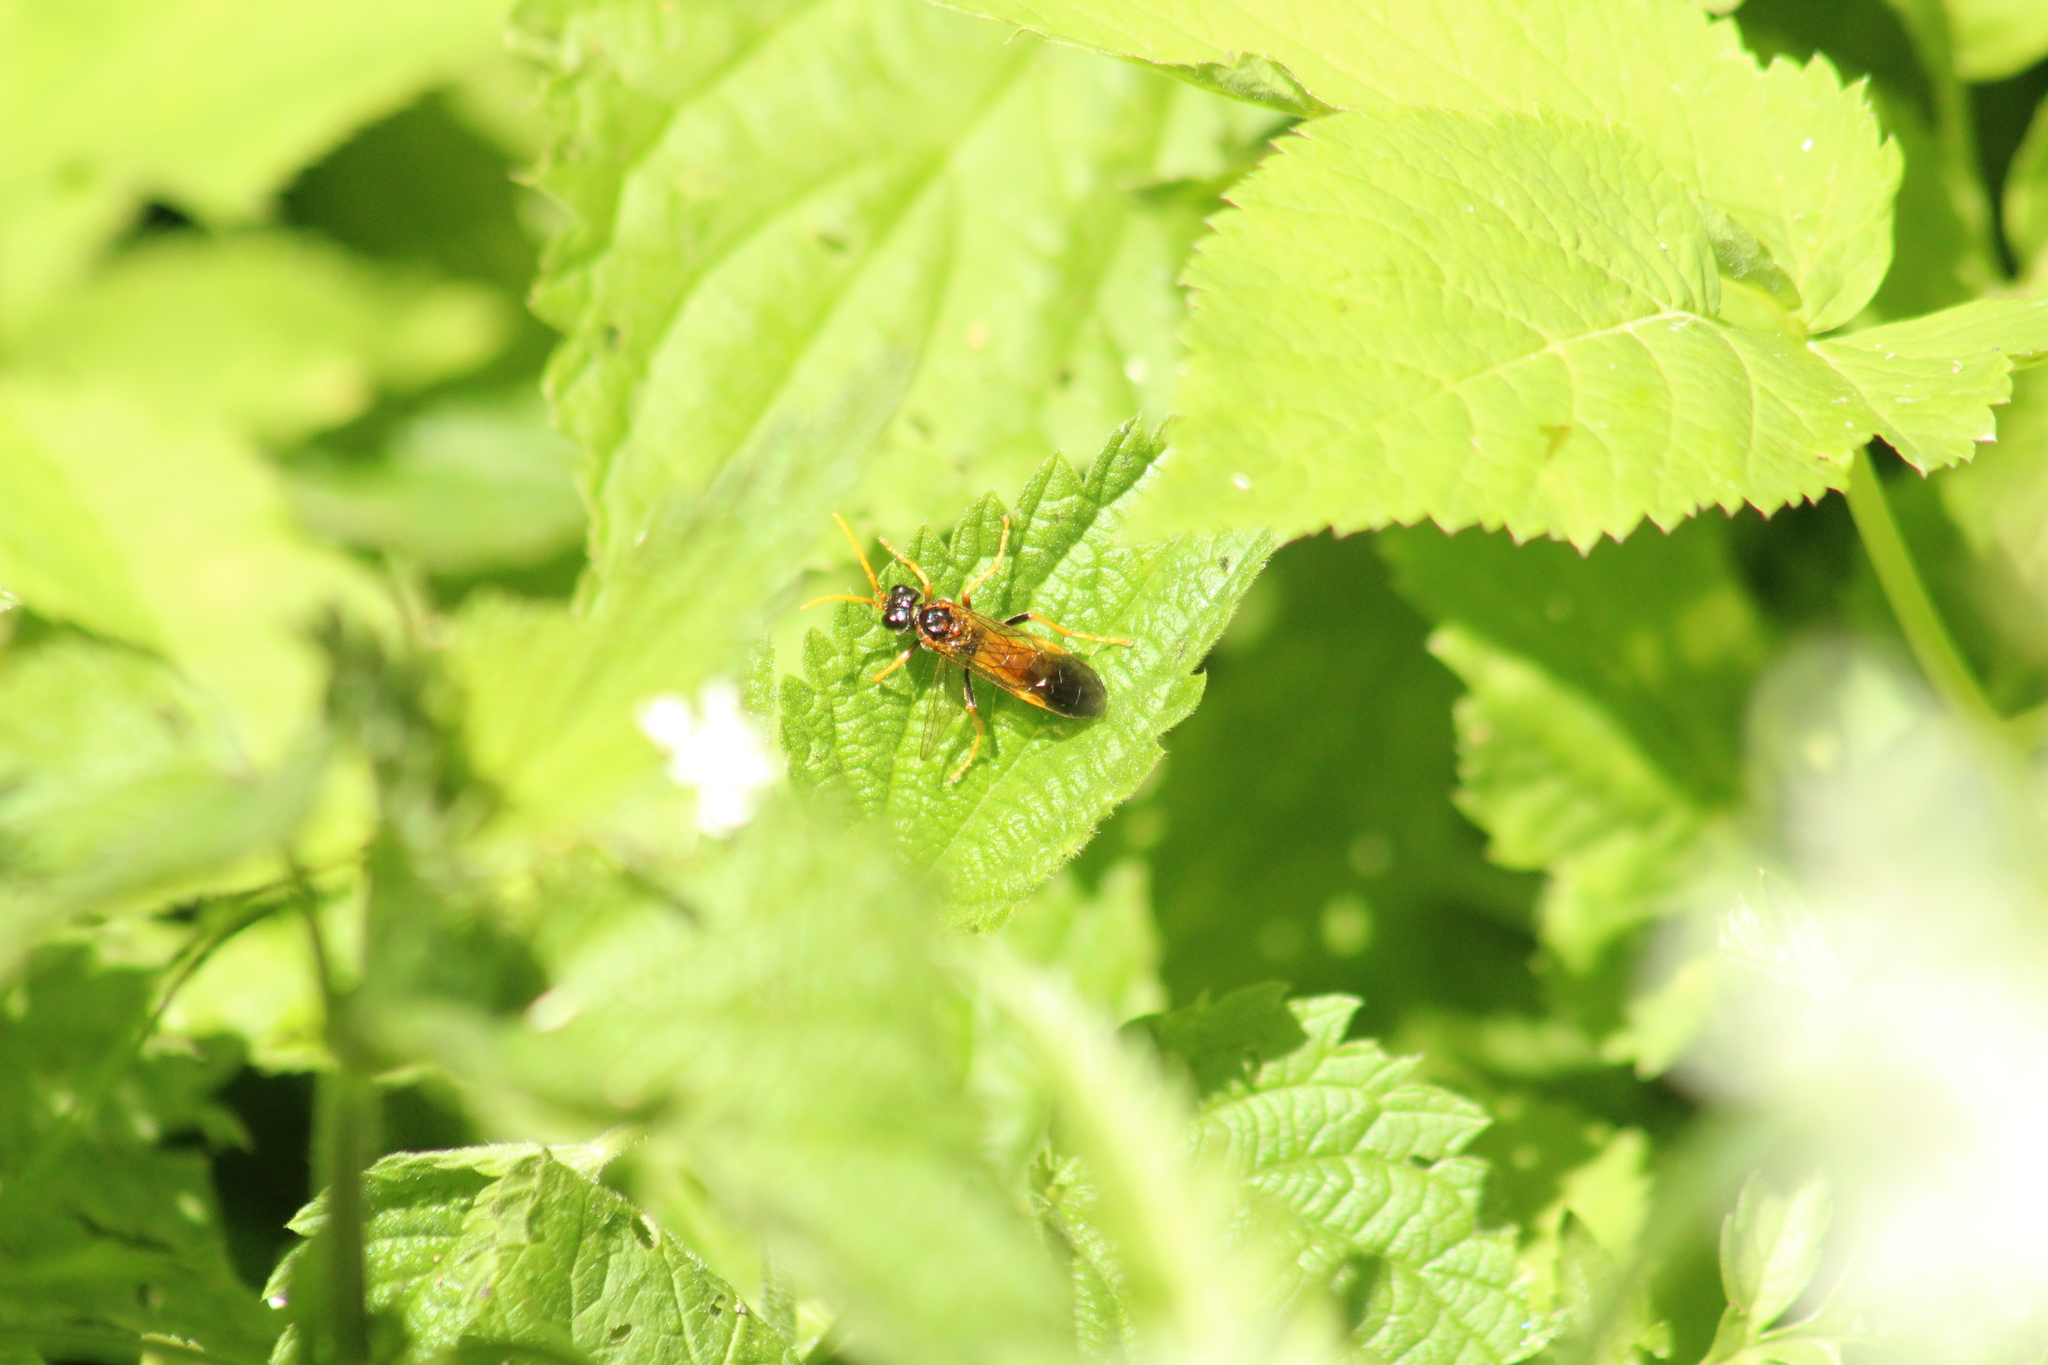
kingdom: Animalia
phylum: Arthropoda
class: Insecta
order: Hymenoptera
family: Tenthredinidae
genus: Tenthredo
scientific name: Tenthredo campestris
